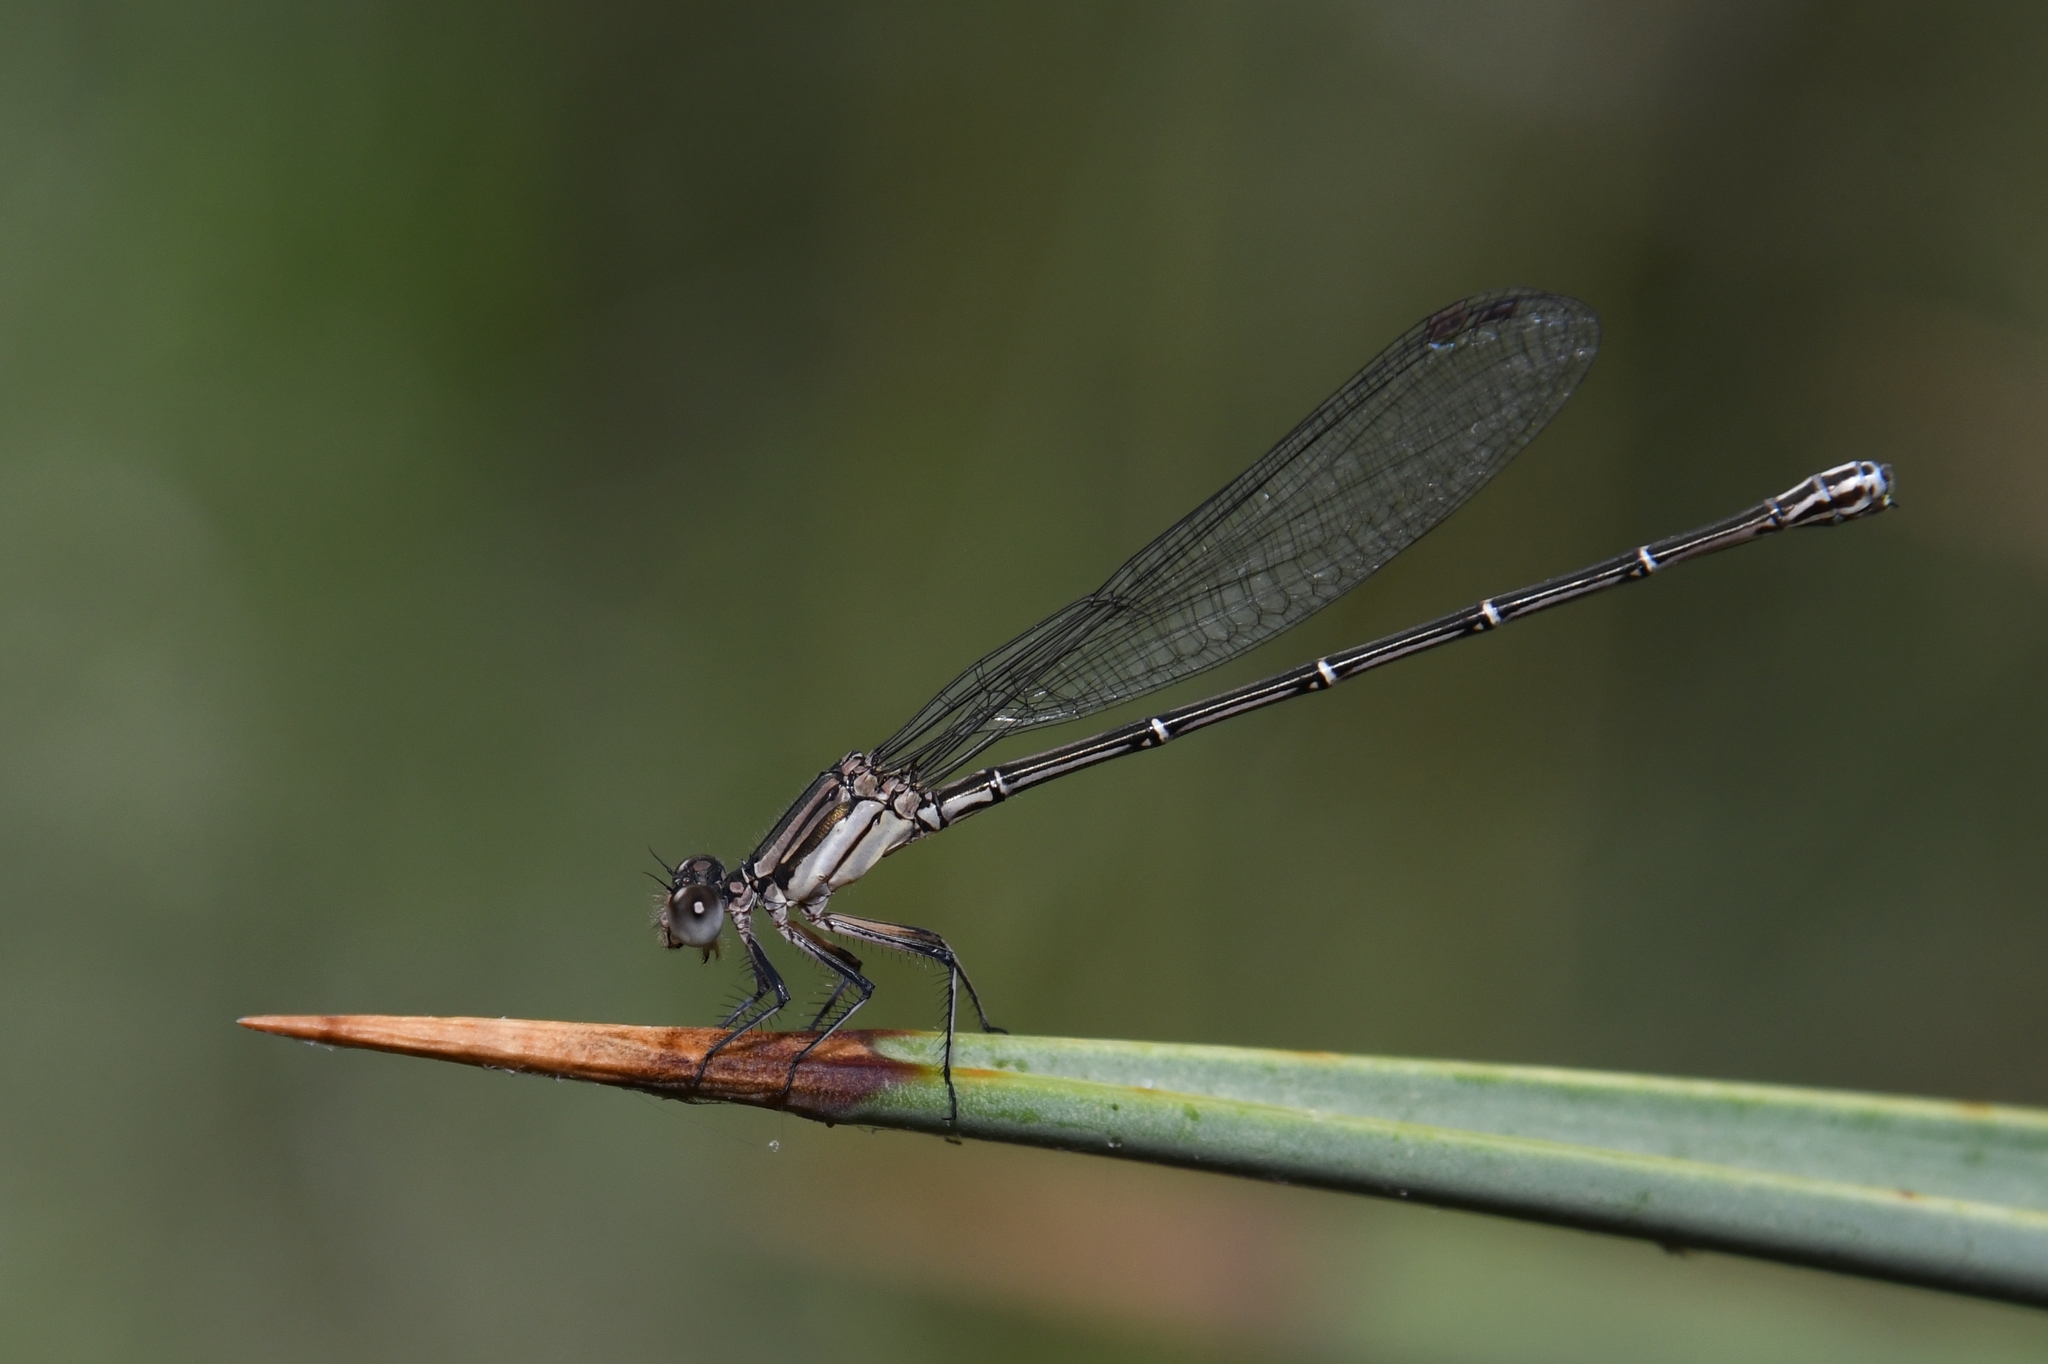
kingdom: Animalia
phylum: Arthropoda
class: Insecta
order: Odonata
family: Coenagrionidae
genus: Argia
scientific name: Argia translata
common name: Dusky dancer
